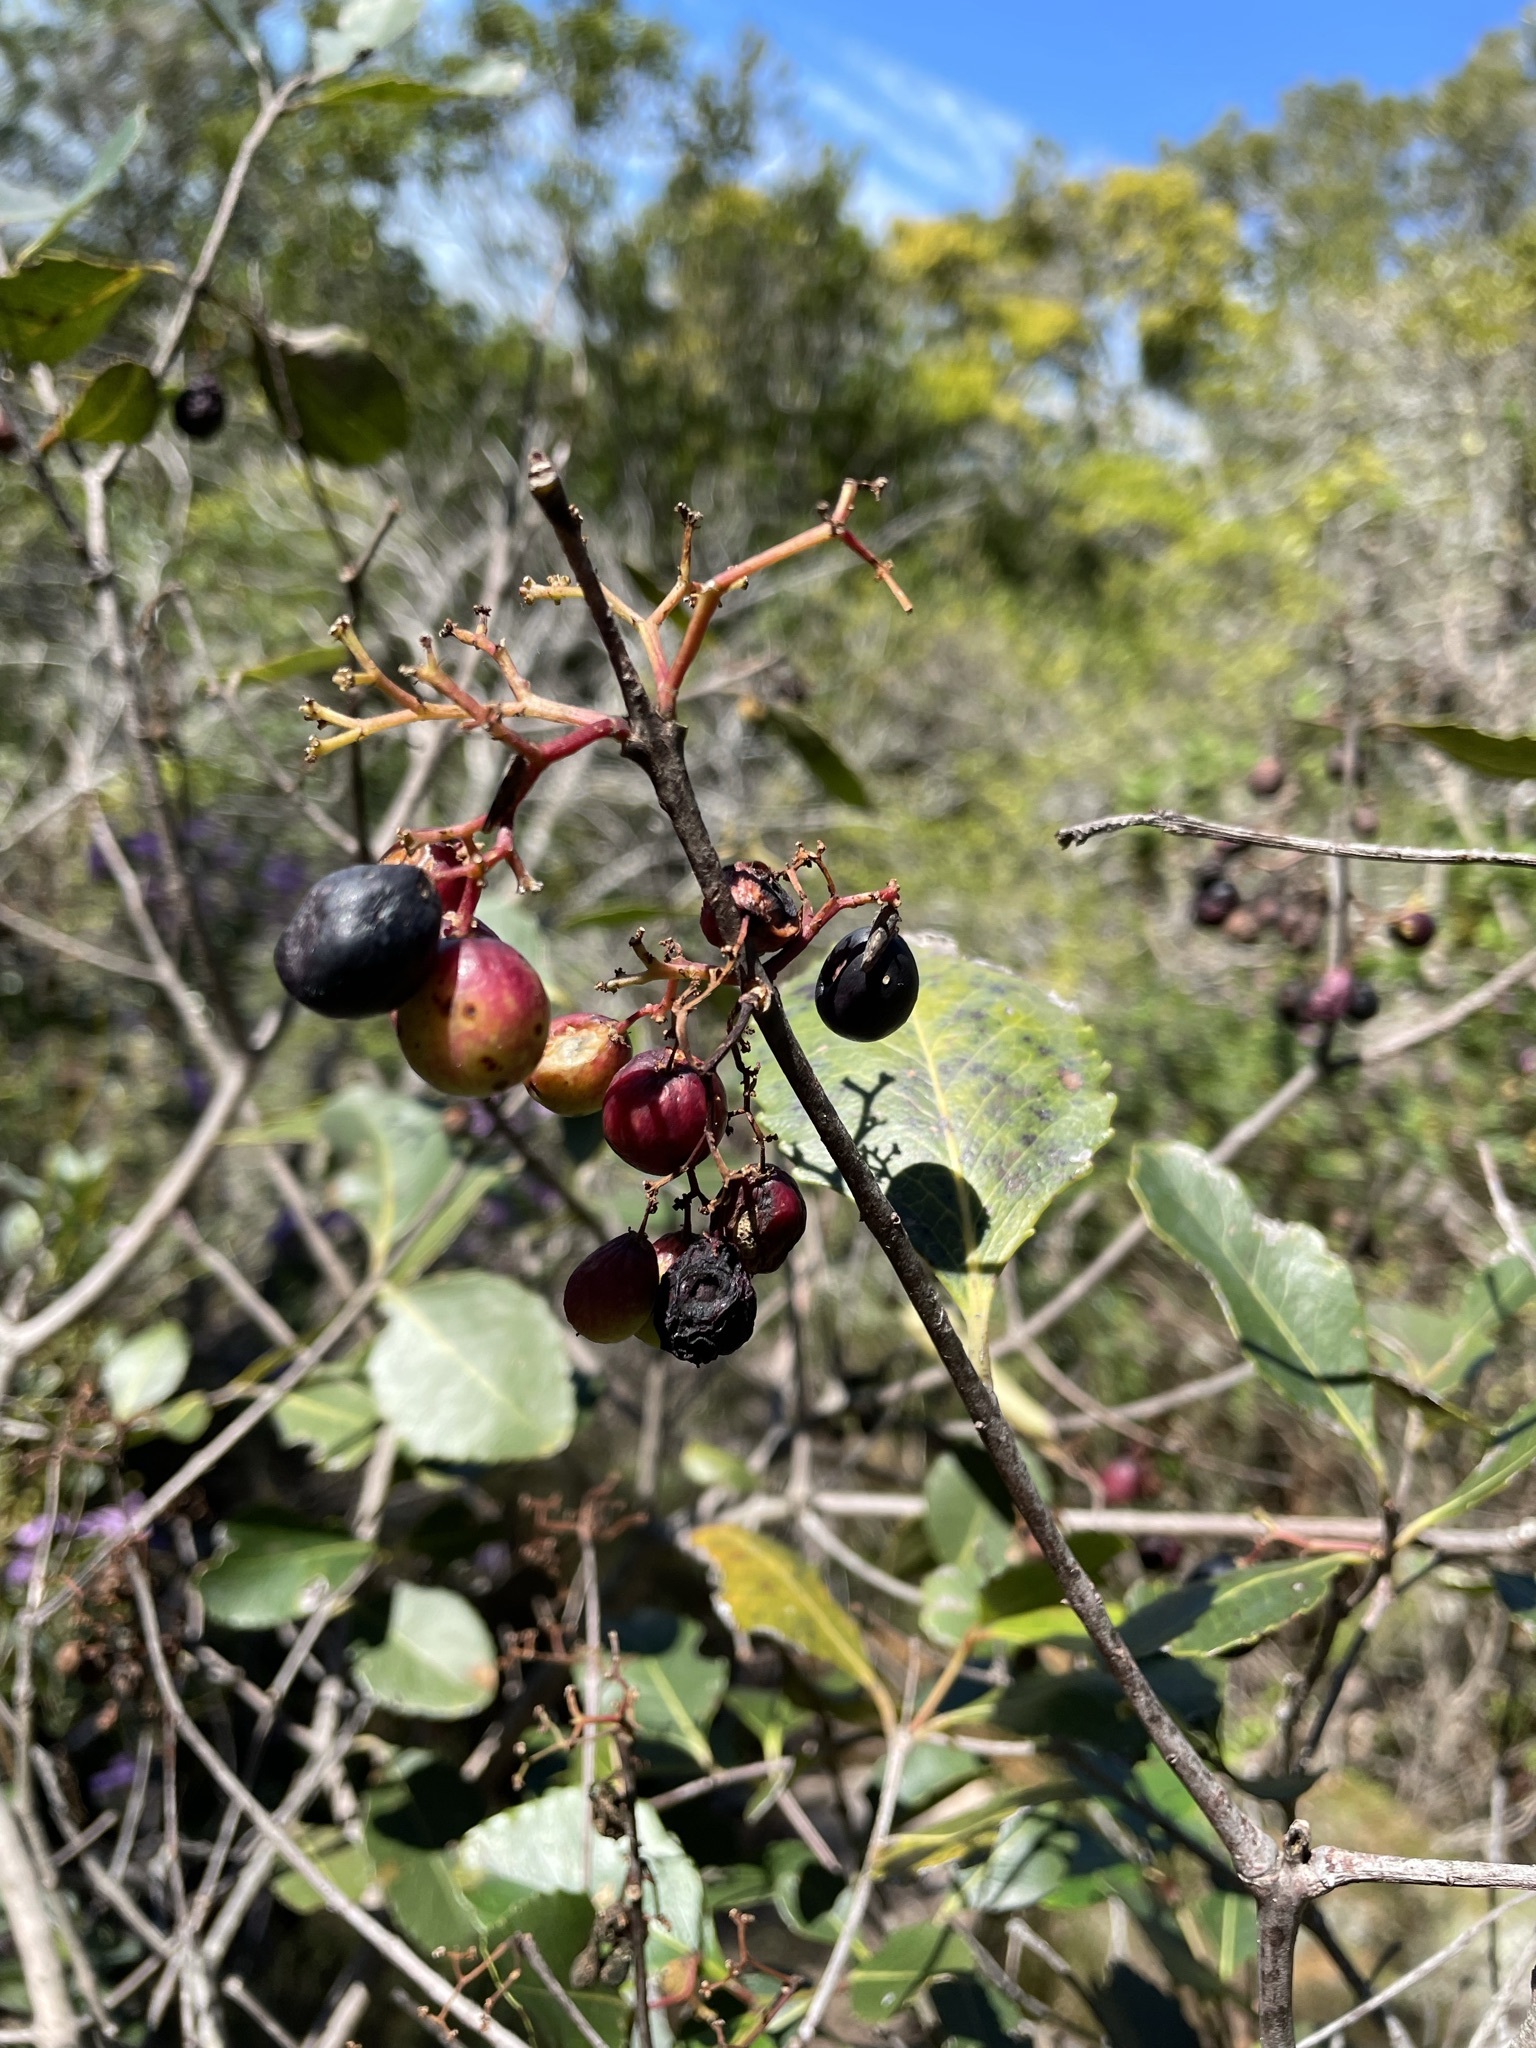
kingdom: Plantae
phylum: Tracheophyta
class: Magnoliopsida
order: Celastrales
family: Celastraceae
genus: Cassine
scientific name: Cassine peragua
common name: Cape saffron
